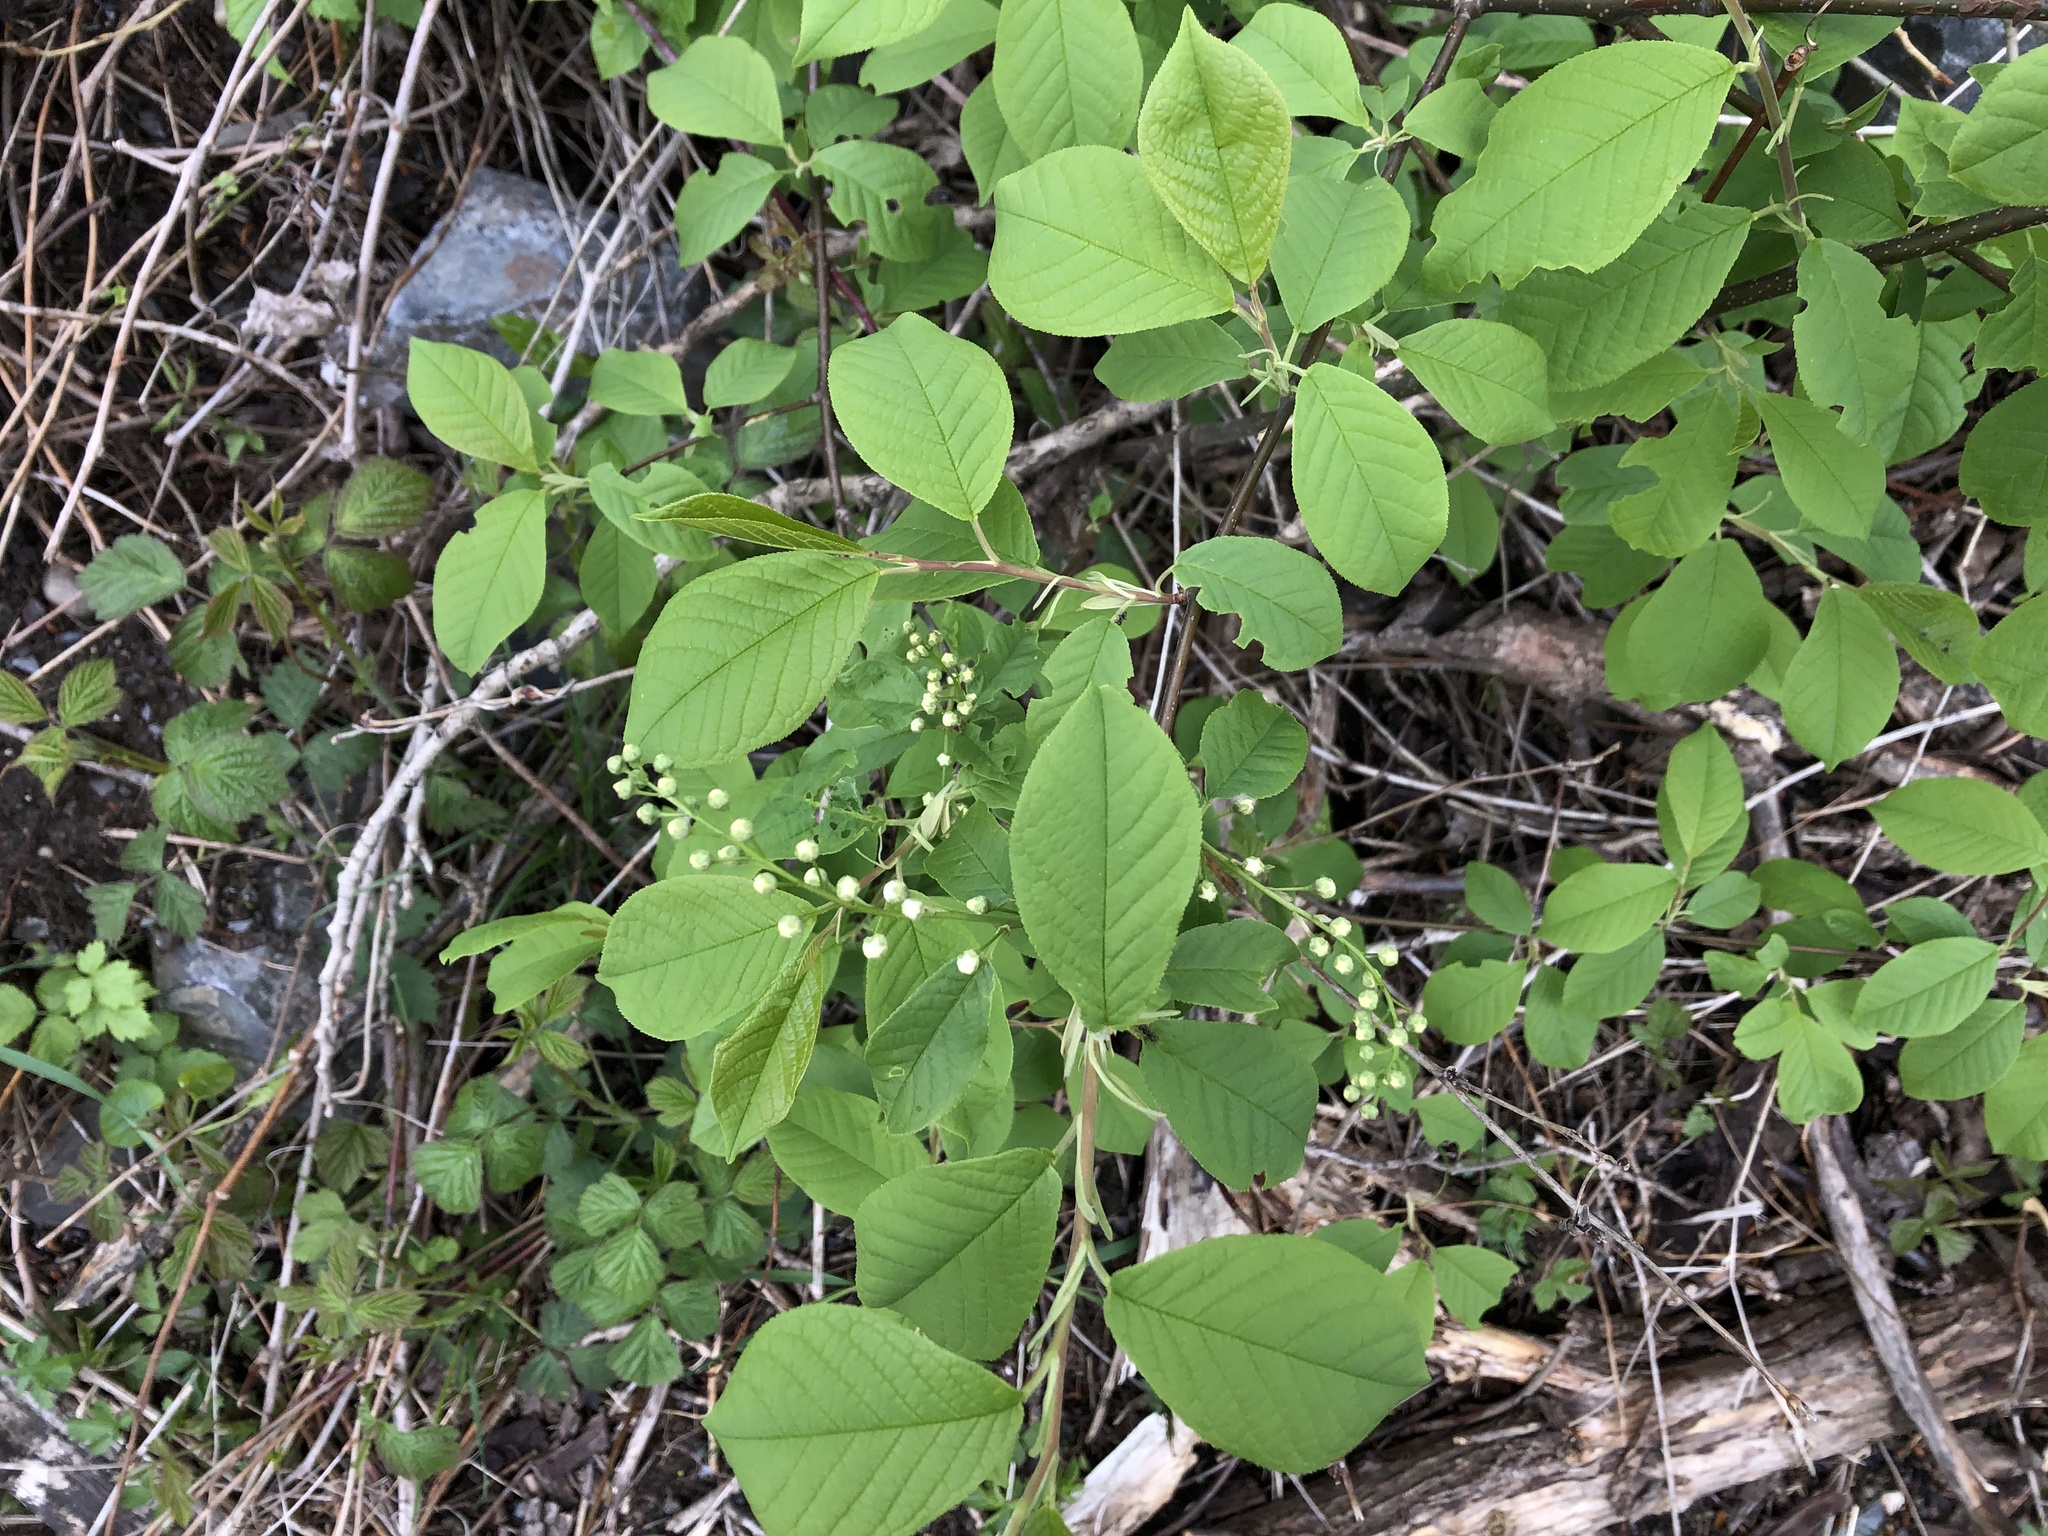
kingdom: Plantae
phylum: Tracheophyta
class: Magnoliopsida
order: Rosales
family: Rosaceae
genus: Prunus
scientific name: Prunus padus
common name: Bird cherry
